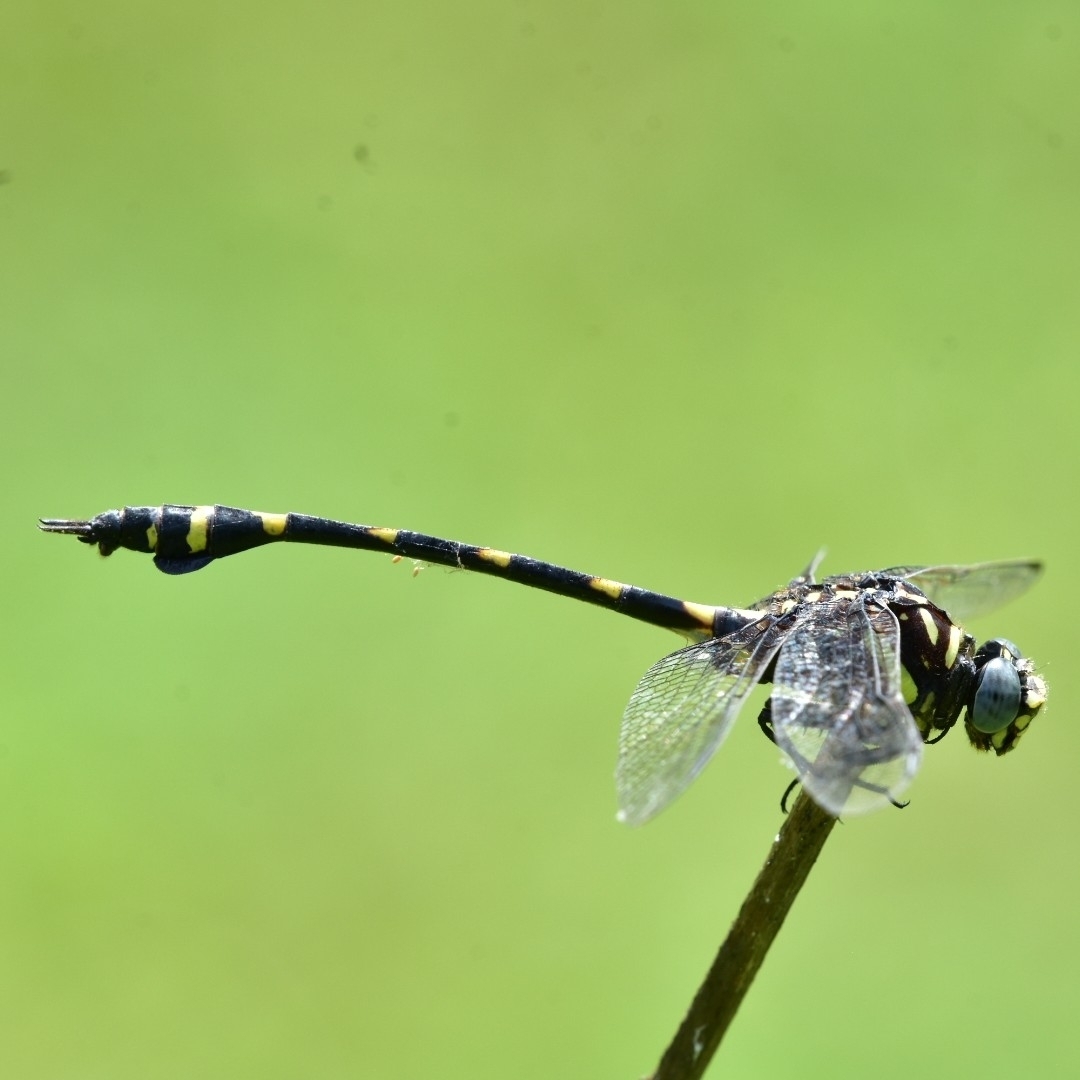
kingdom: Animalia
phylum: Arthropoda
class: Insecta
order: Odonata
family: Gomphidae
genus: Ictinogomphus
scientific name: Ictinogomphus rapax
